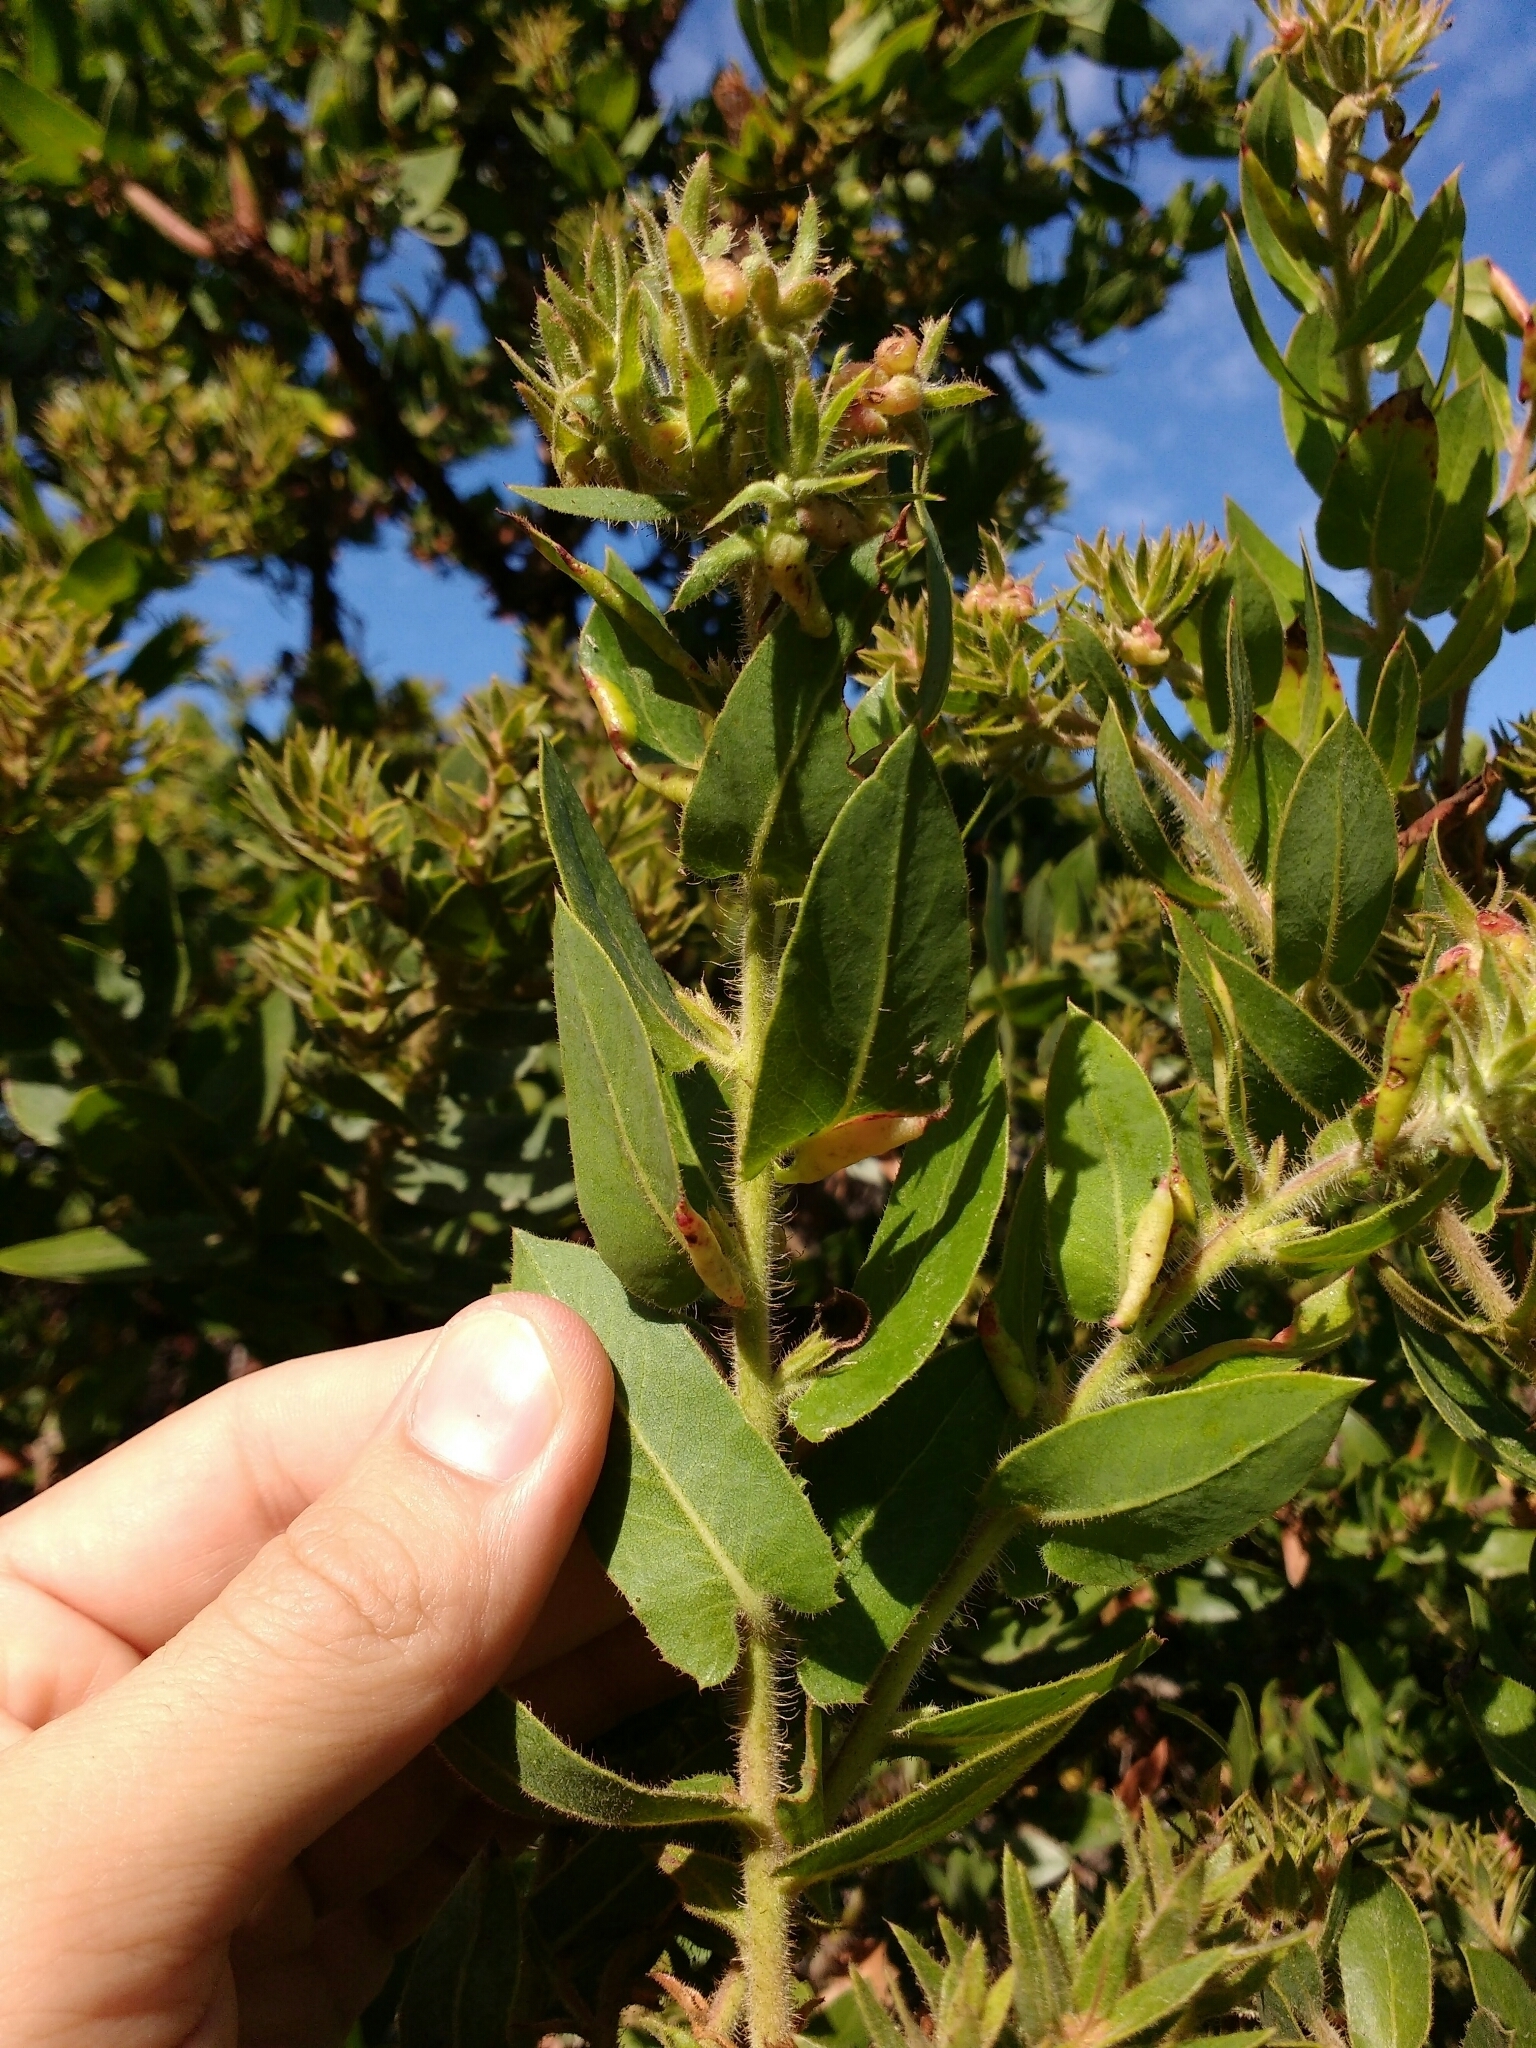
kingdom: Plantae
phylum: Tracheophyta
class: Magnoliopsida
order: Ericales
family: Ericaceae
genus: Arctostaphylos
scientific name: Arctostaphylos montaraensis
